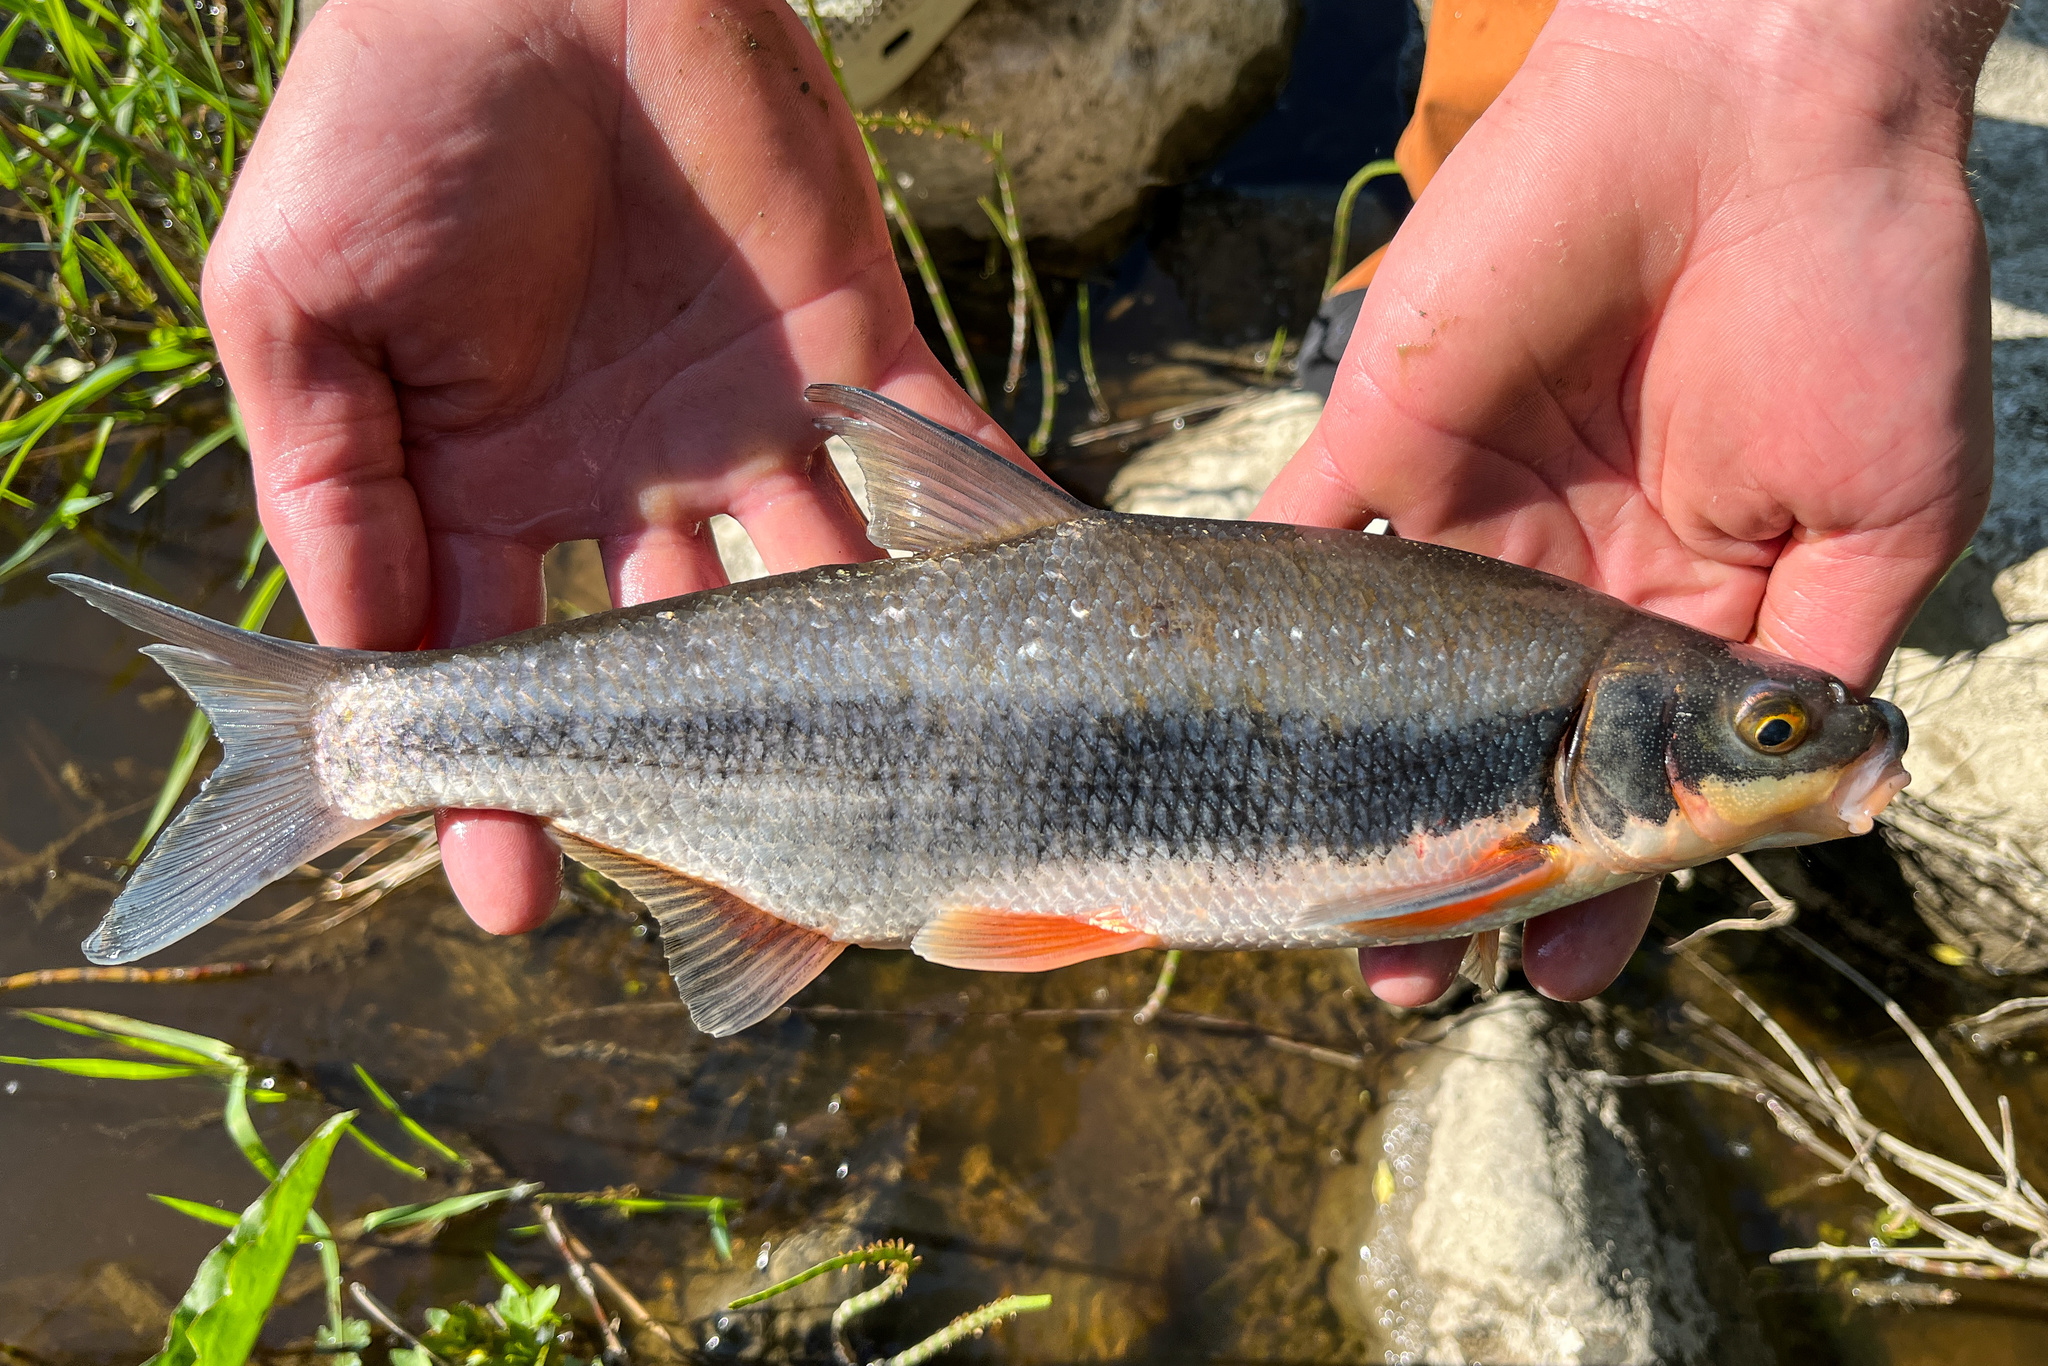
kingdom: Animalia
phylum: Chordata
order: Cypriniformes
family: Cyprinidae
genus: Vimba
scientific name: Vimba vimba
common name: Vimba
